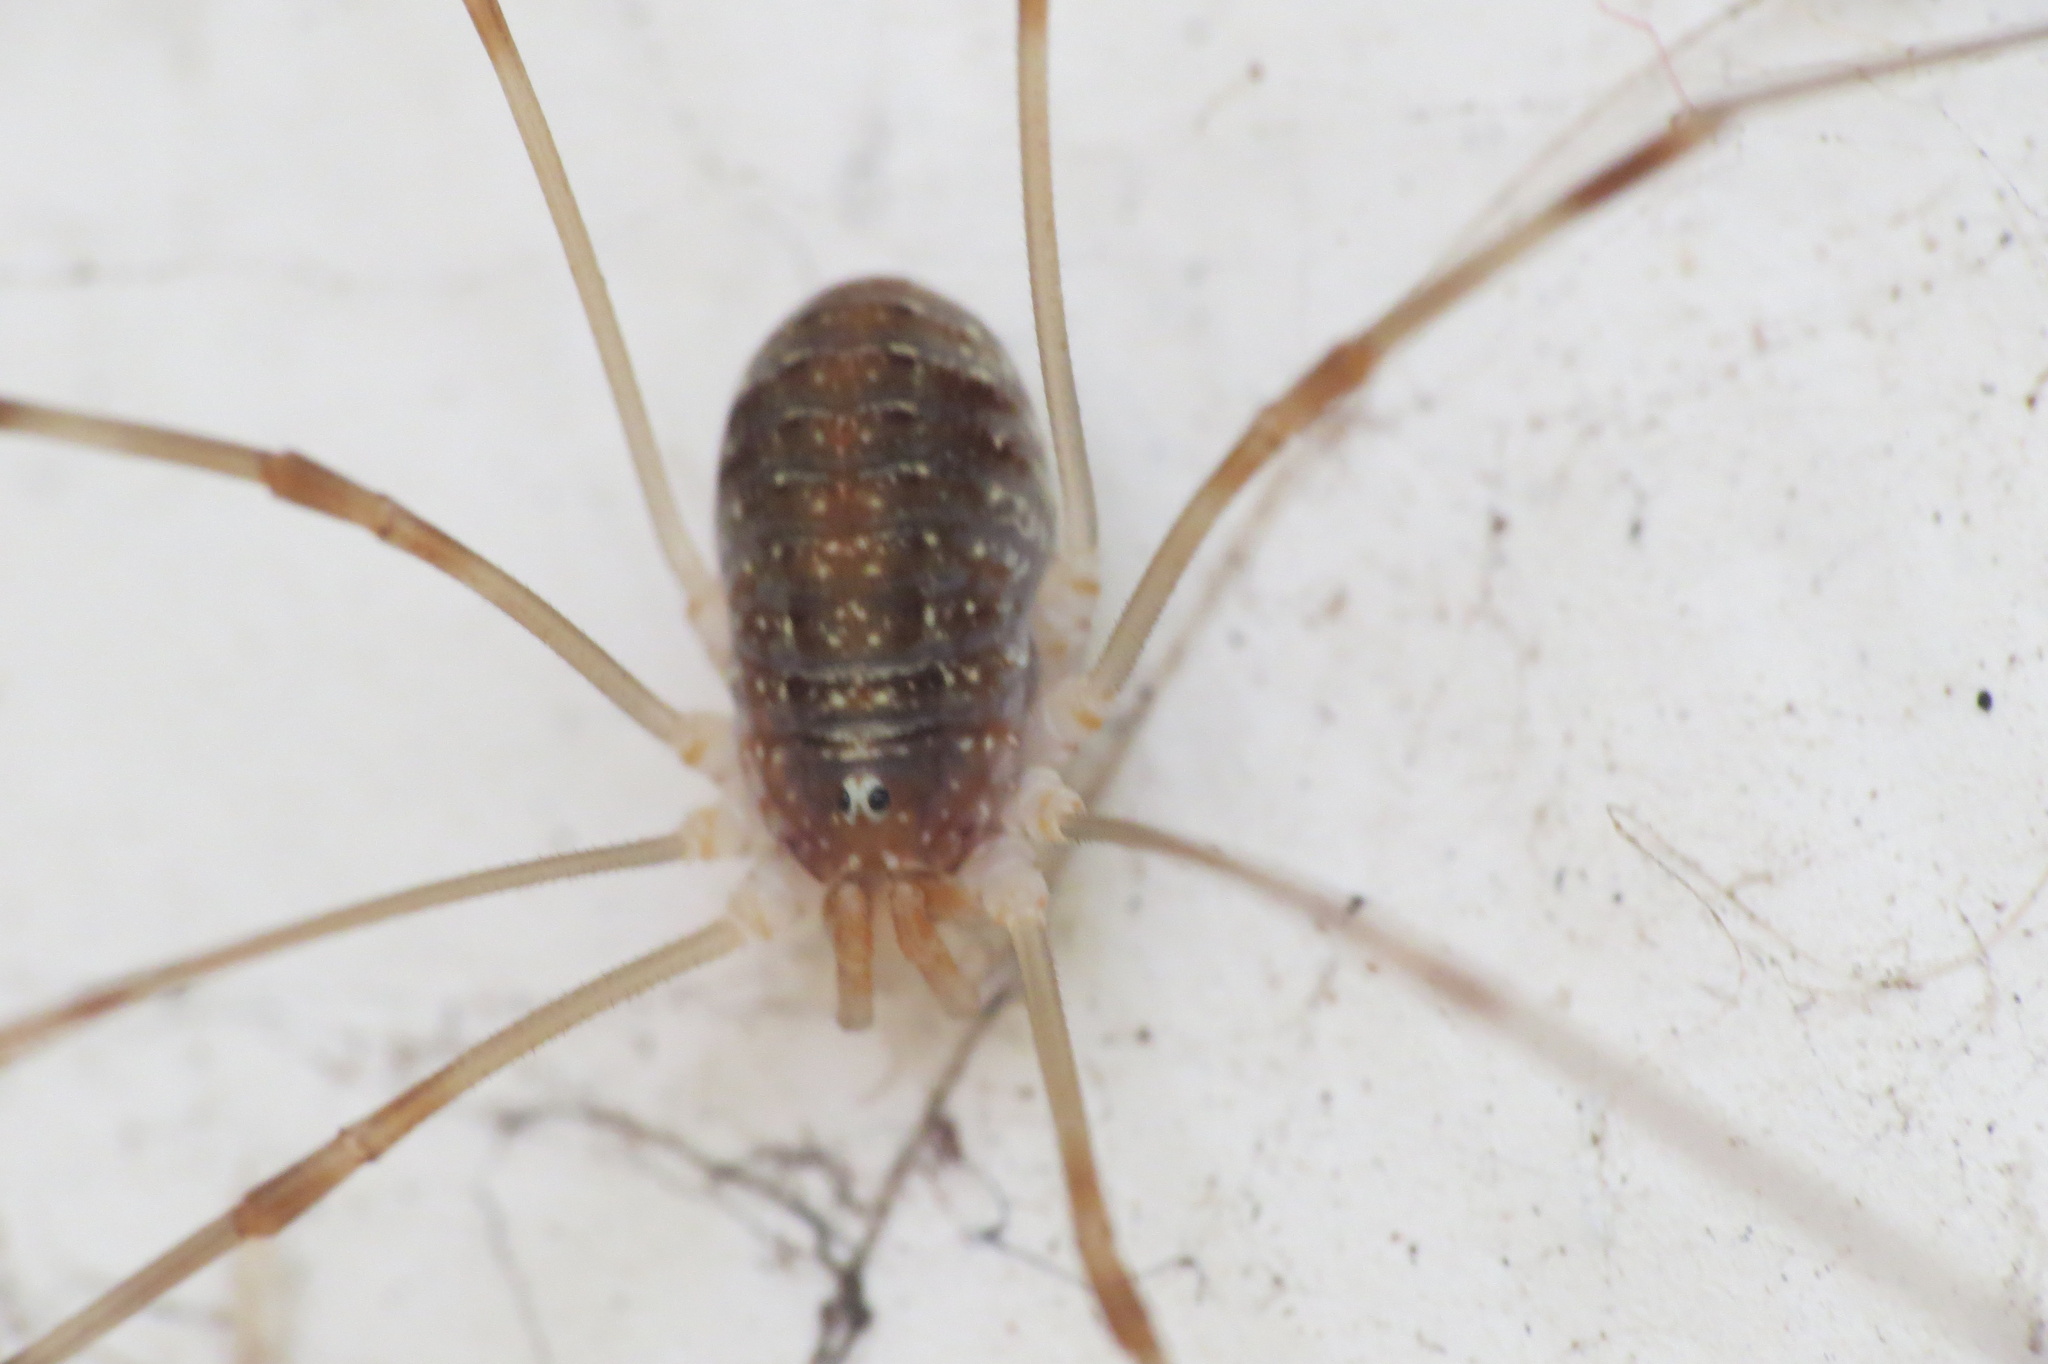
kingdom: Animalia
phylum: Arthropoda
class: Arachnida
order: Opiliones
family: Phalangiidae
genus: Opilio
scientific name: Opilio canestrinii
